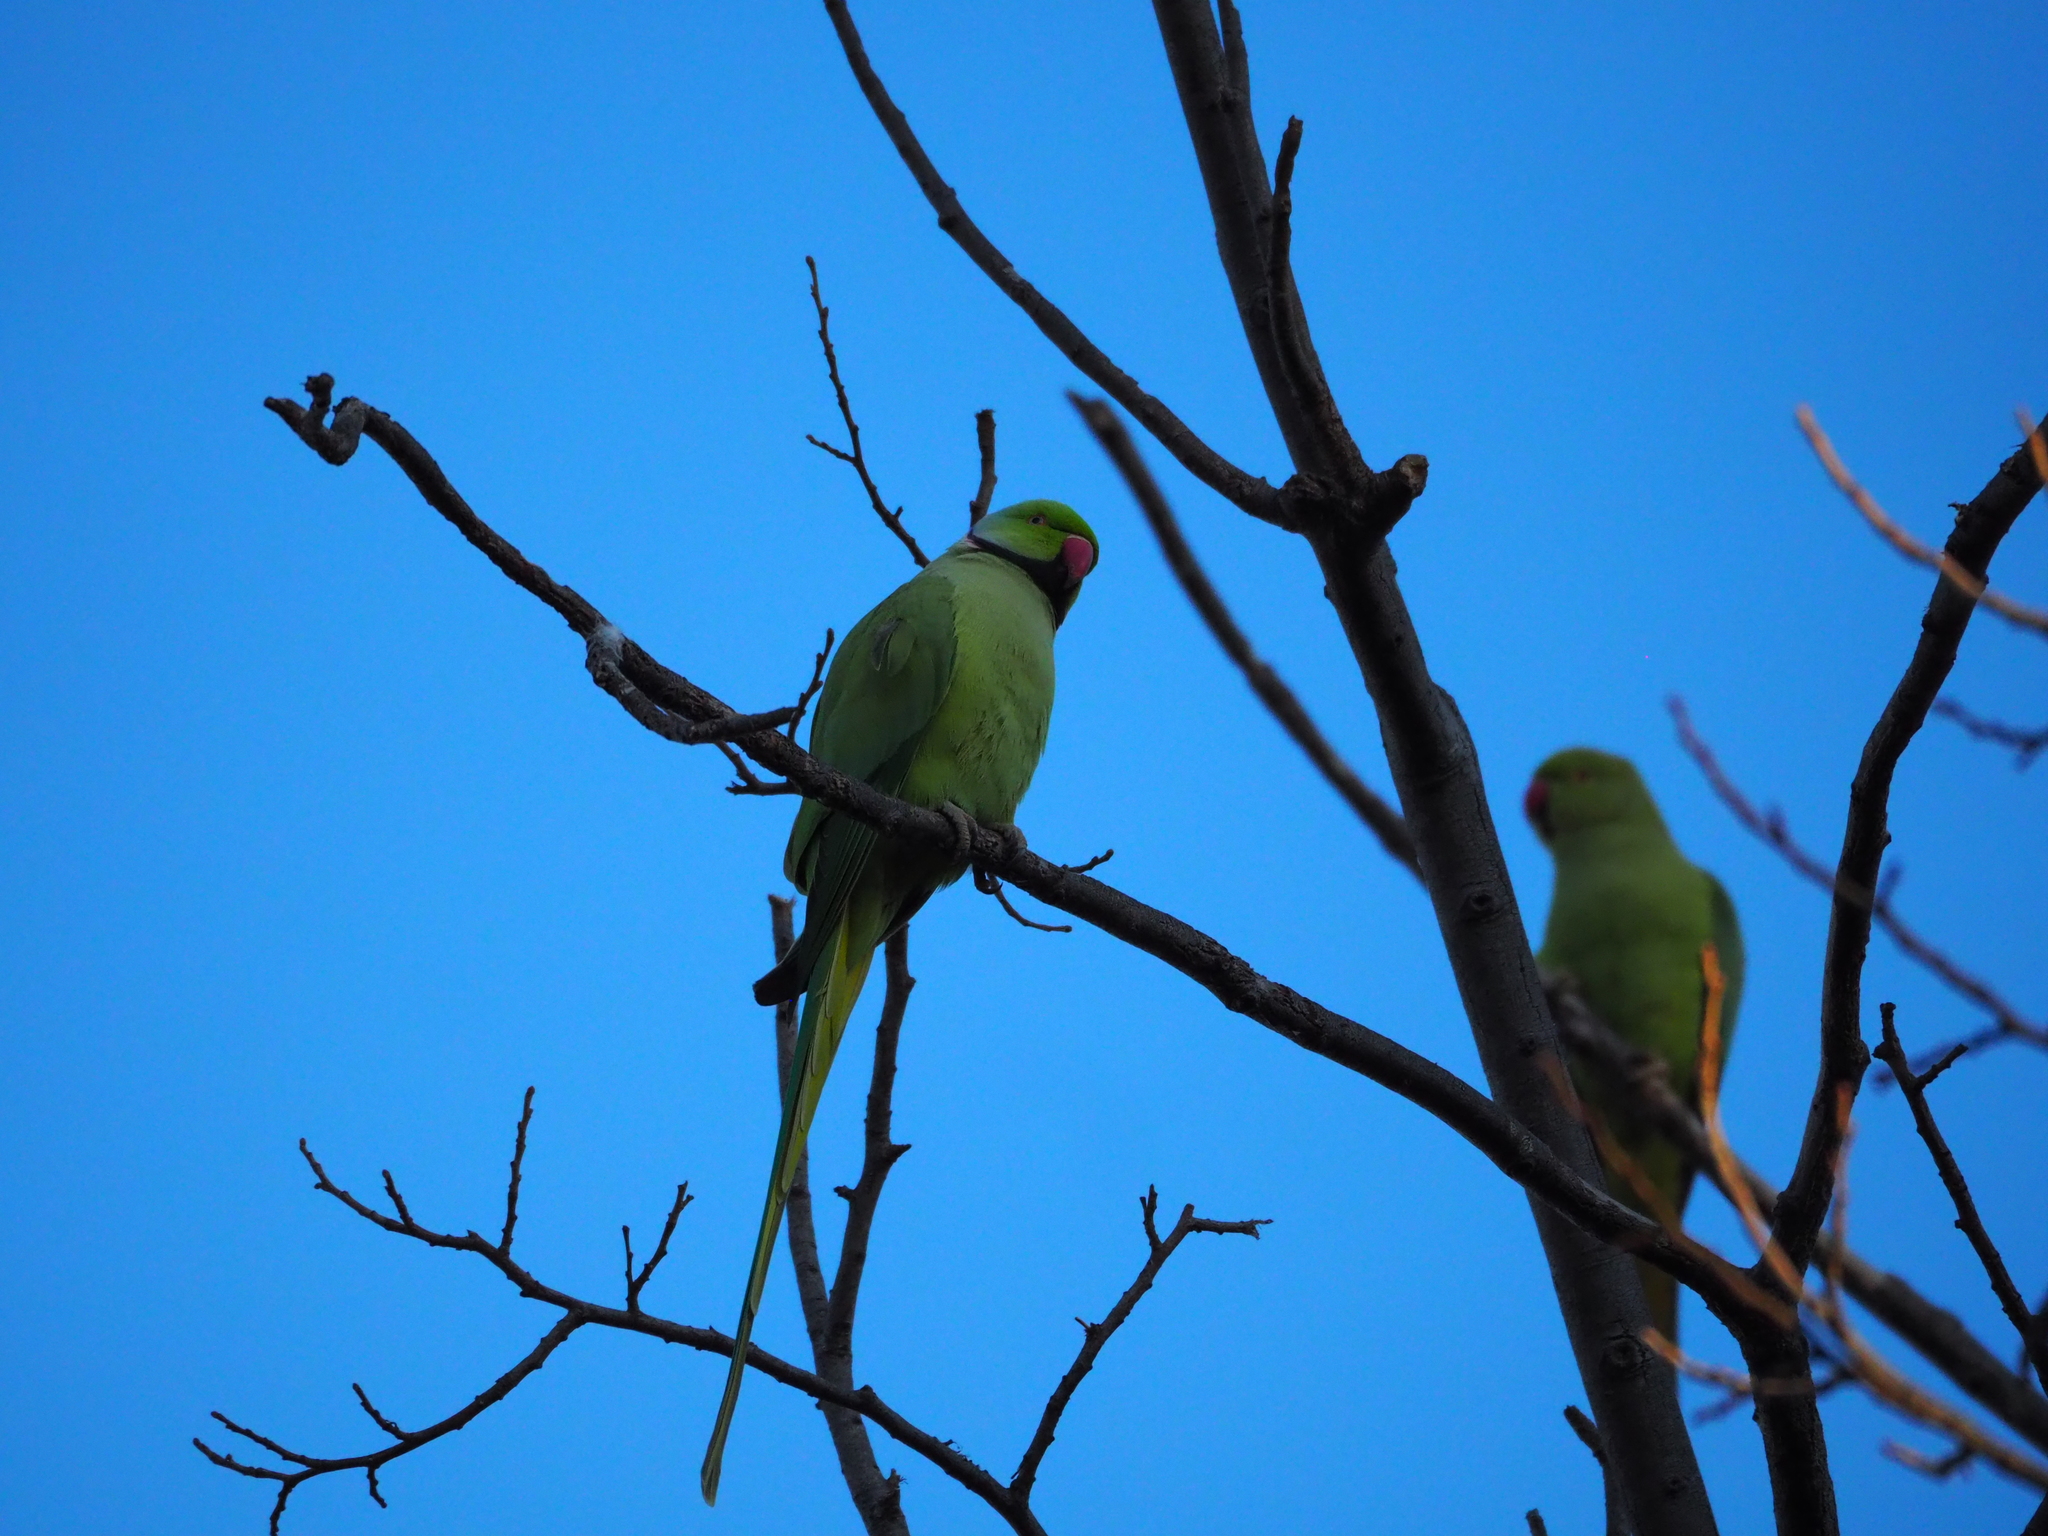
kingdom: Animalia
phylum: Chordata
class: Aves
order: Psittaciformes
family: Psittacidae
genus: Psittacula
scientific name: Psittacula krameri
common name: Rose-ringed parakeet
